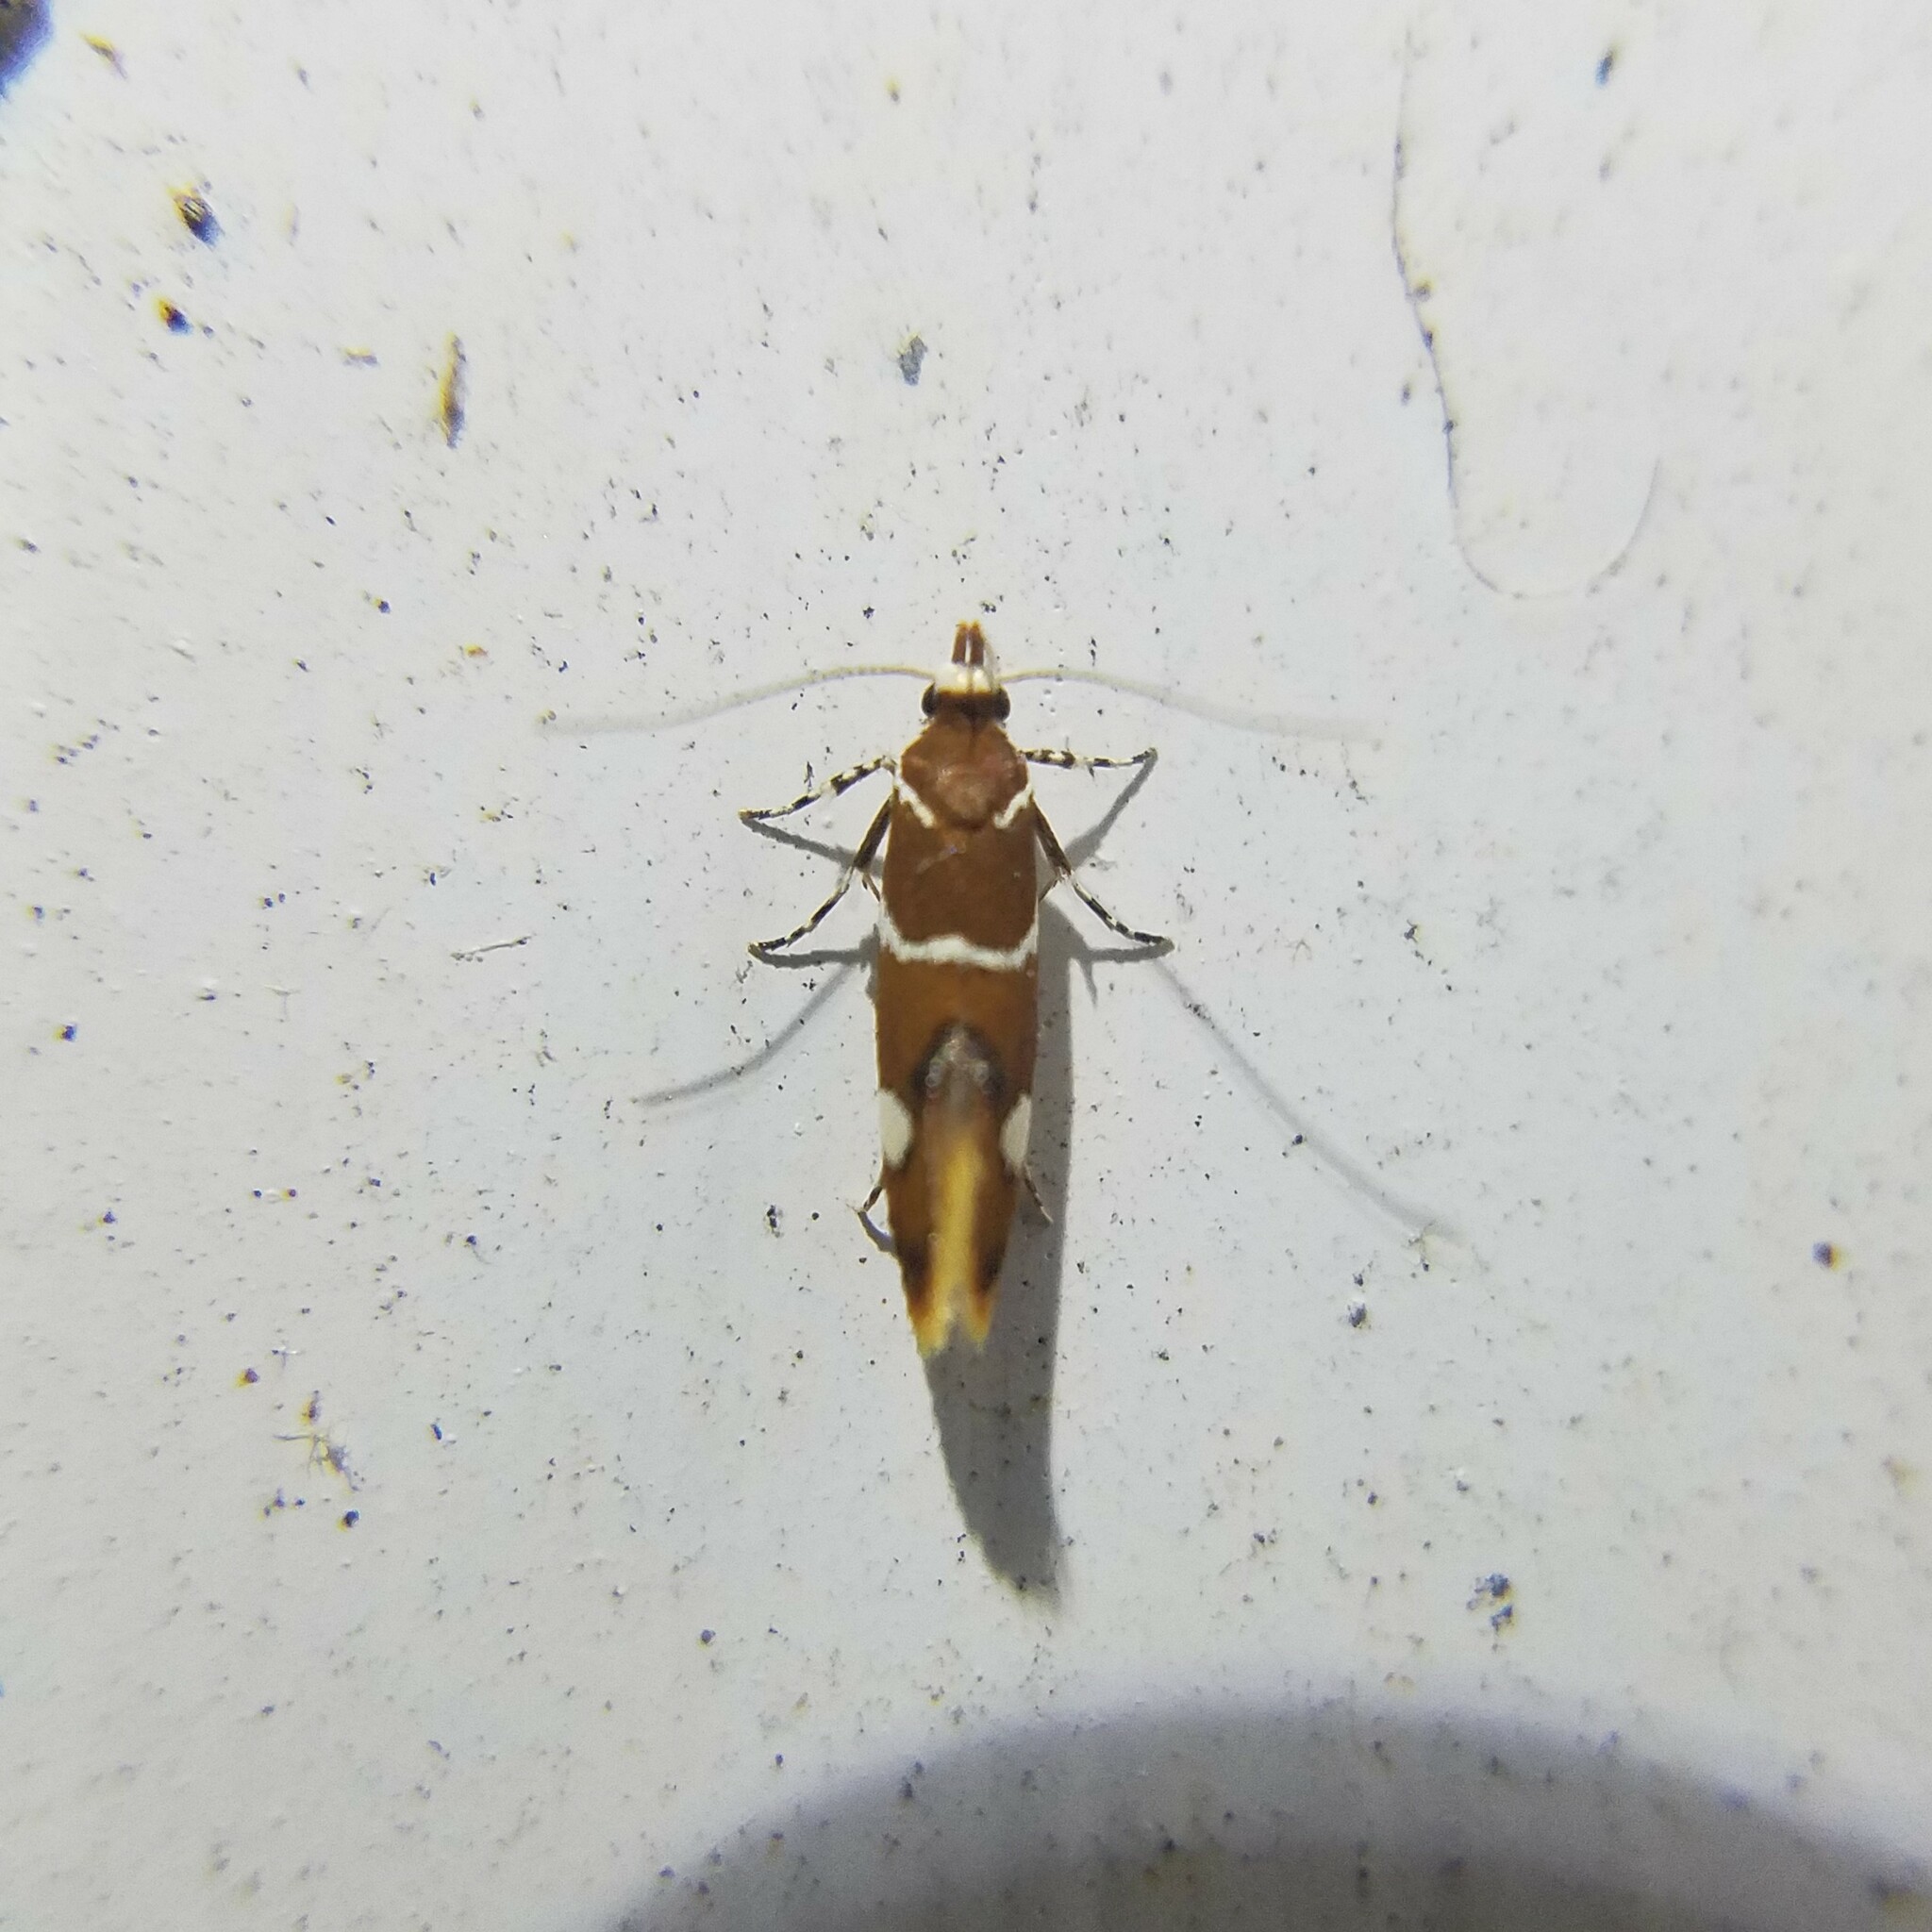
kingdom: Animalia
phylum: Arthropoda
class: Insecta
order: Lepidoptera
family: Oecophoridae
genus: Promalactis
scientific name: Promalactis suzukiella
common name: Moth
